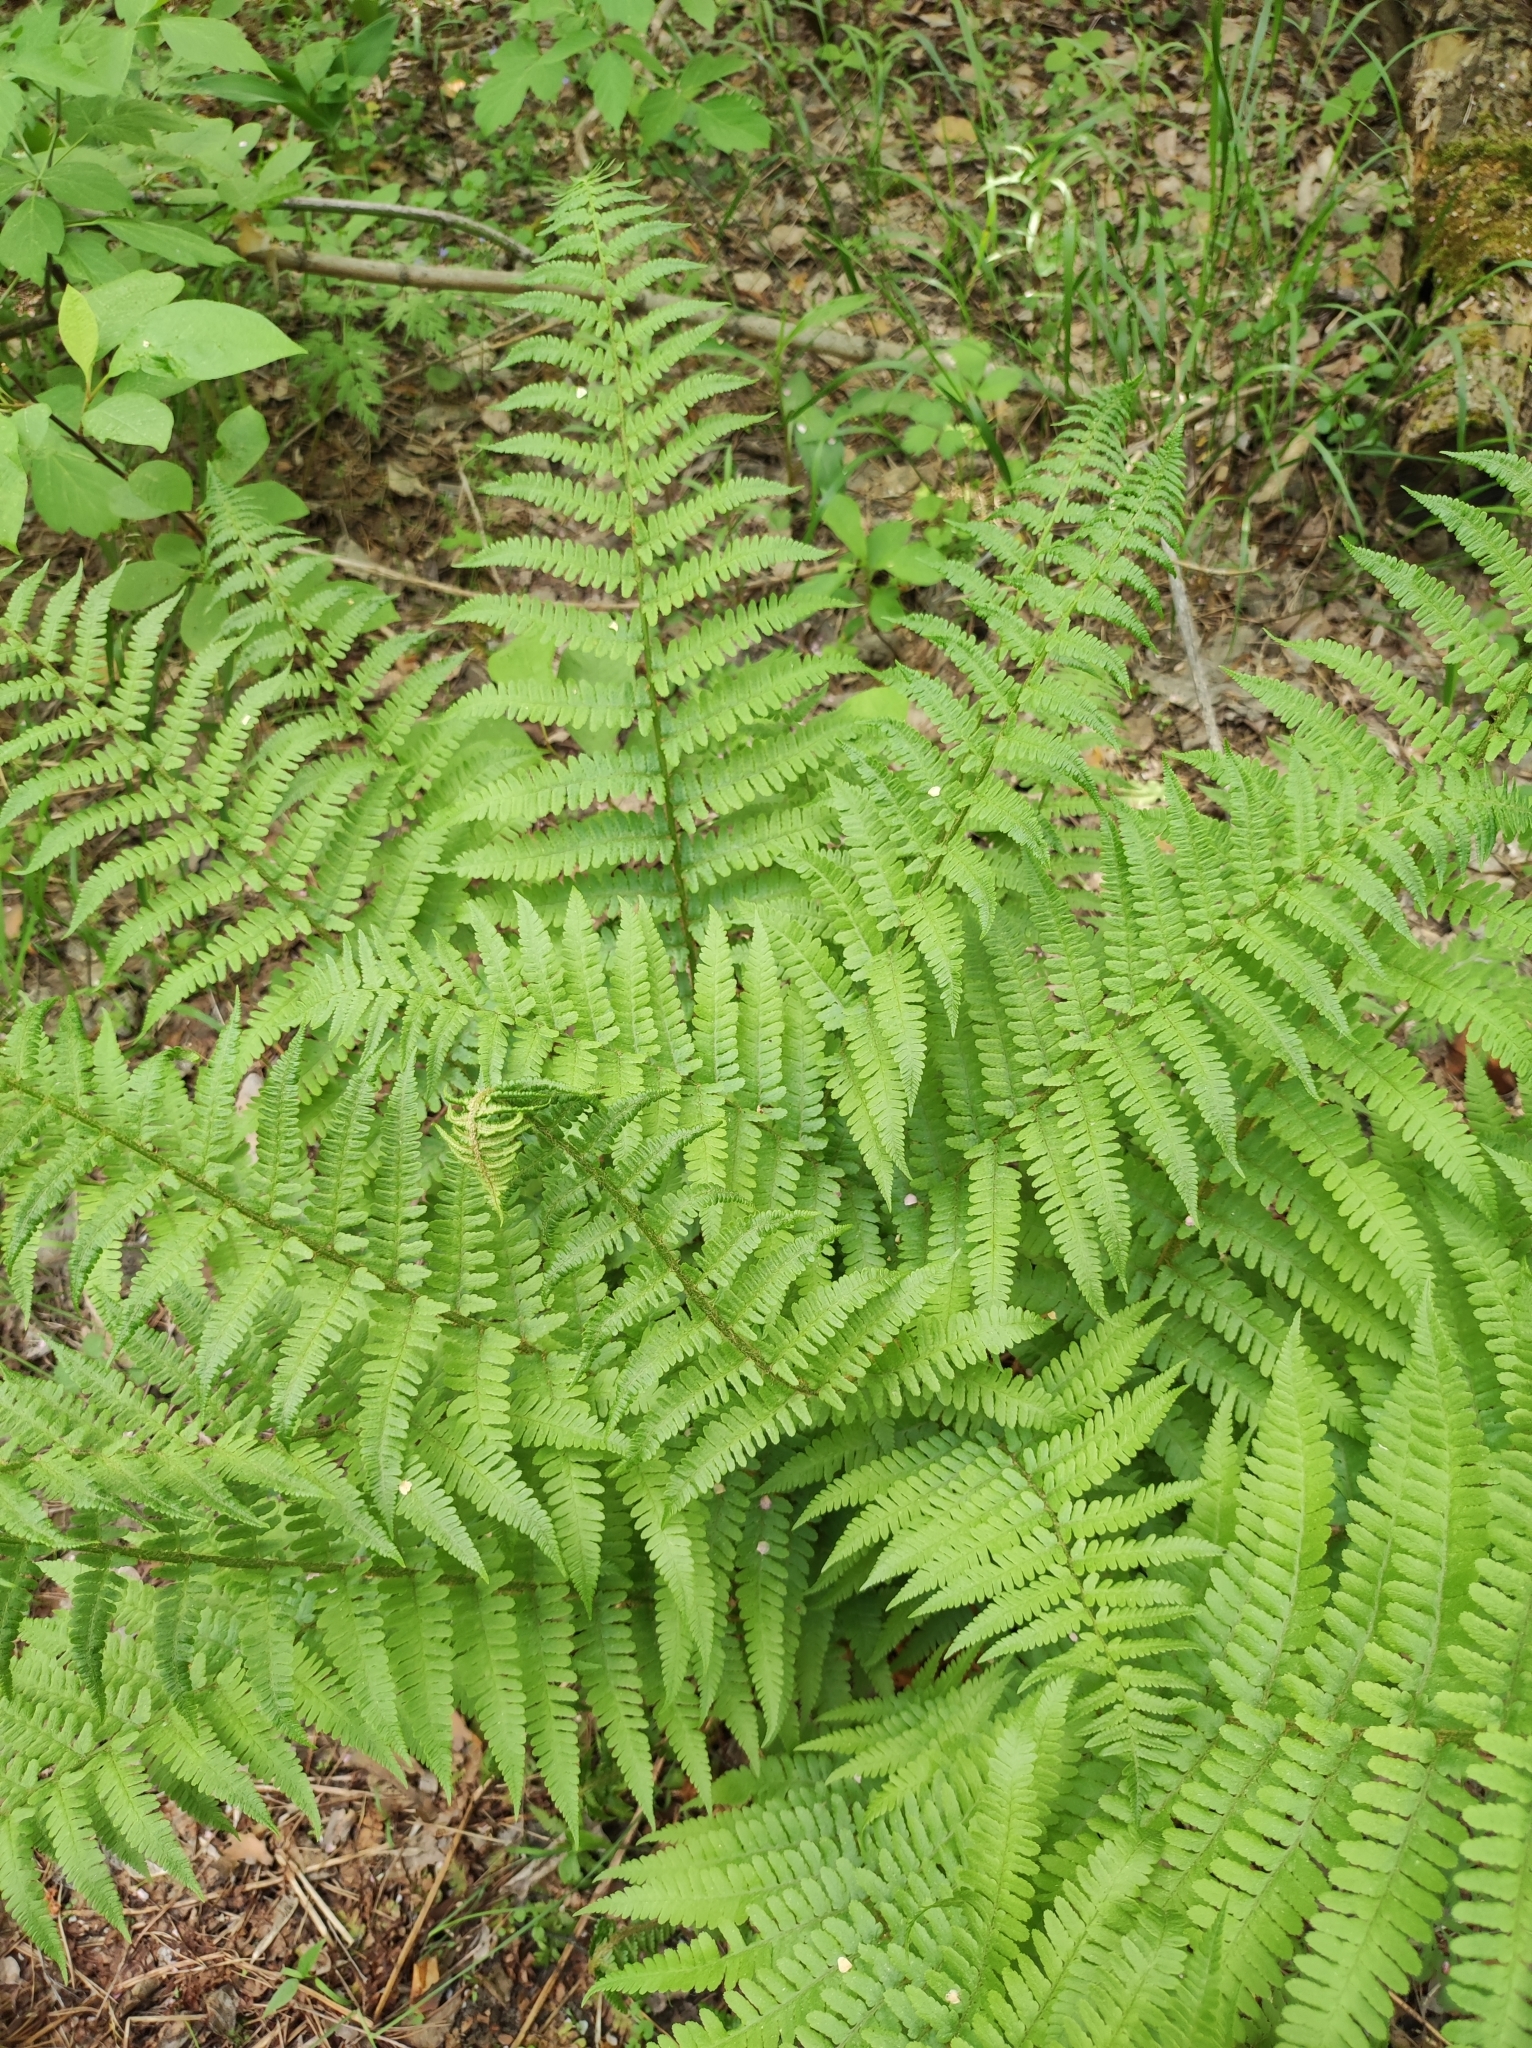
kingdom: Plantae
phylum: Tracheophyta
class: Polypodiopsida
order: Polypodiales
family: Dryopteridaceae
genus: Dryopteris
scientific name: Dryopteris filix-mas
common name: Male fern
